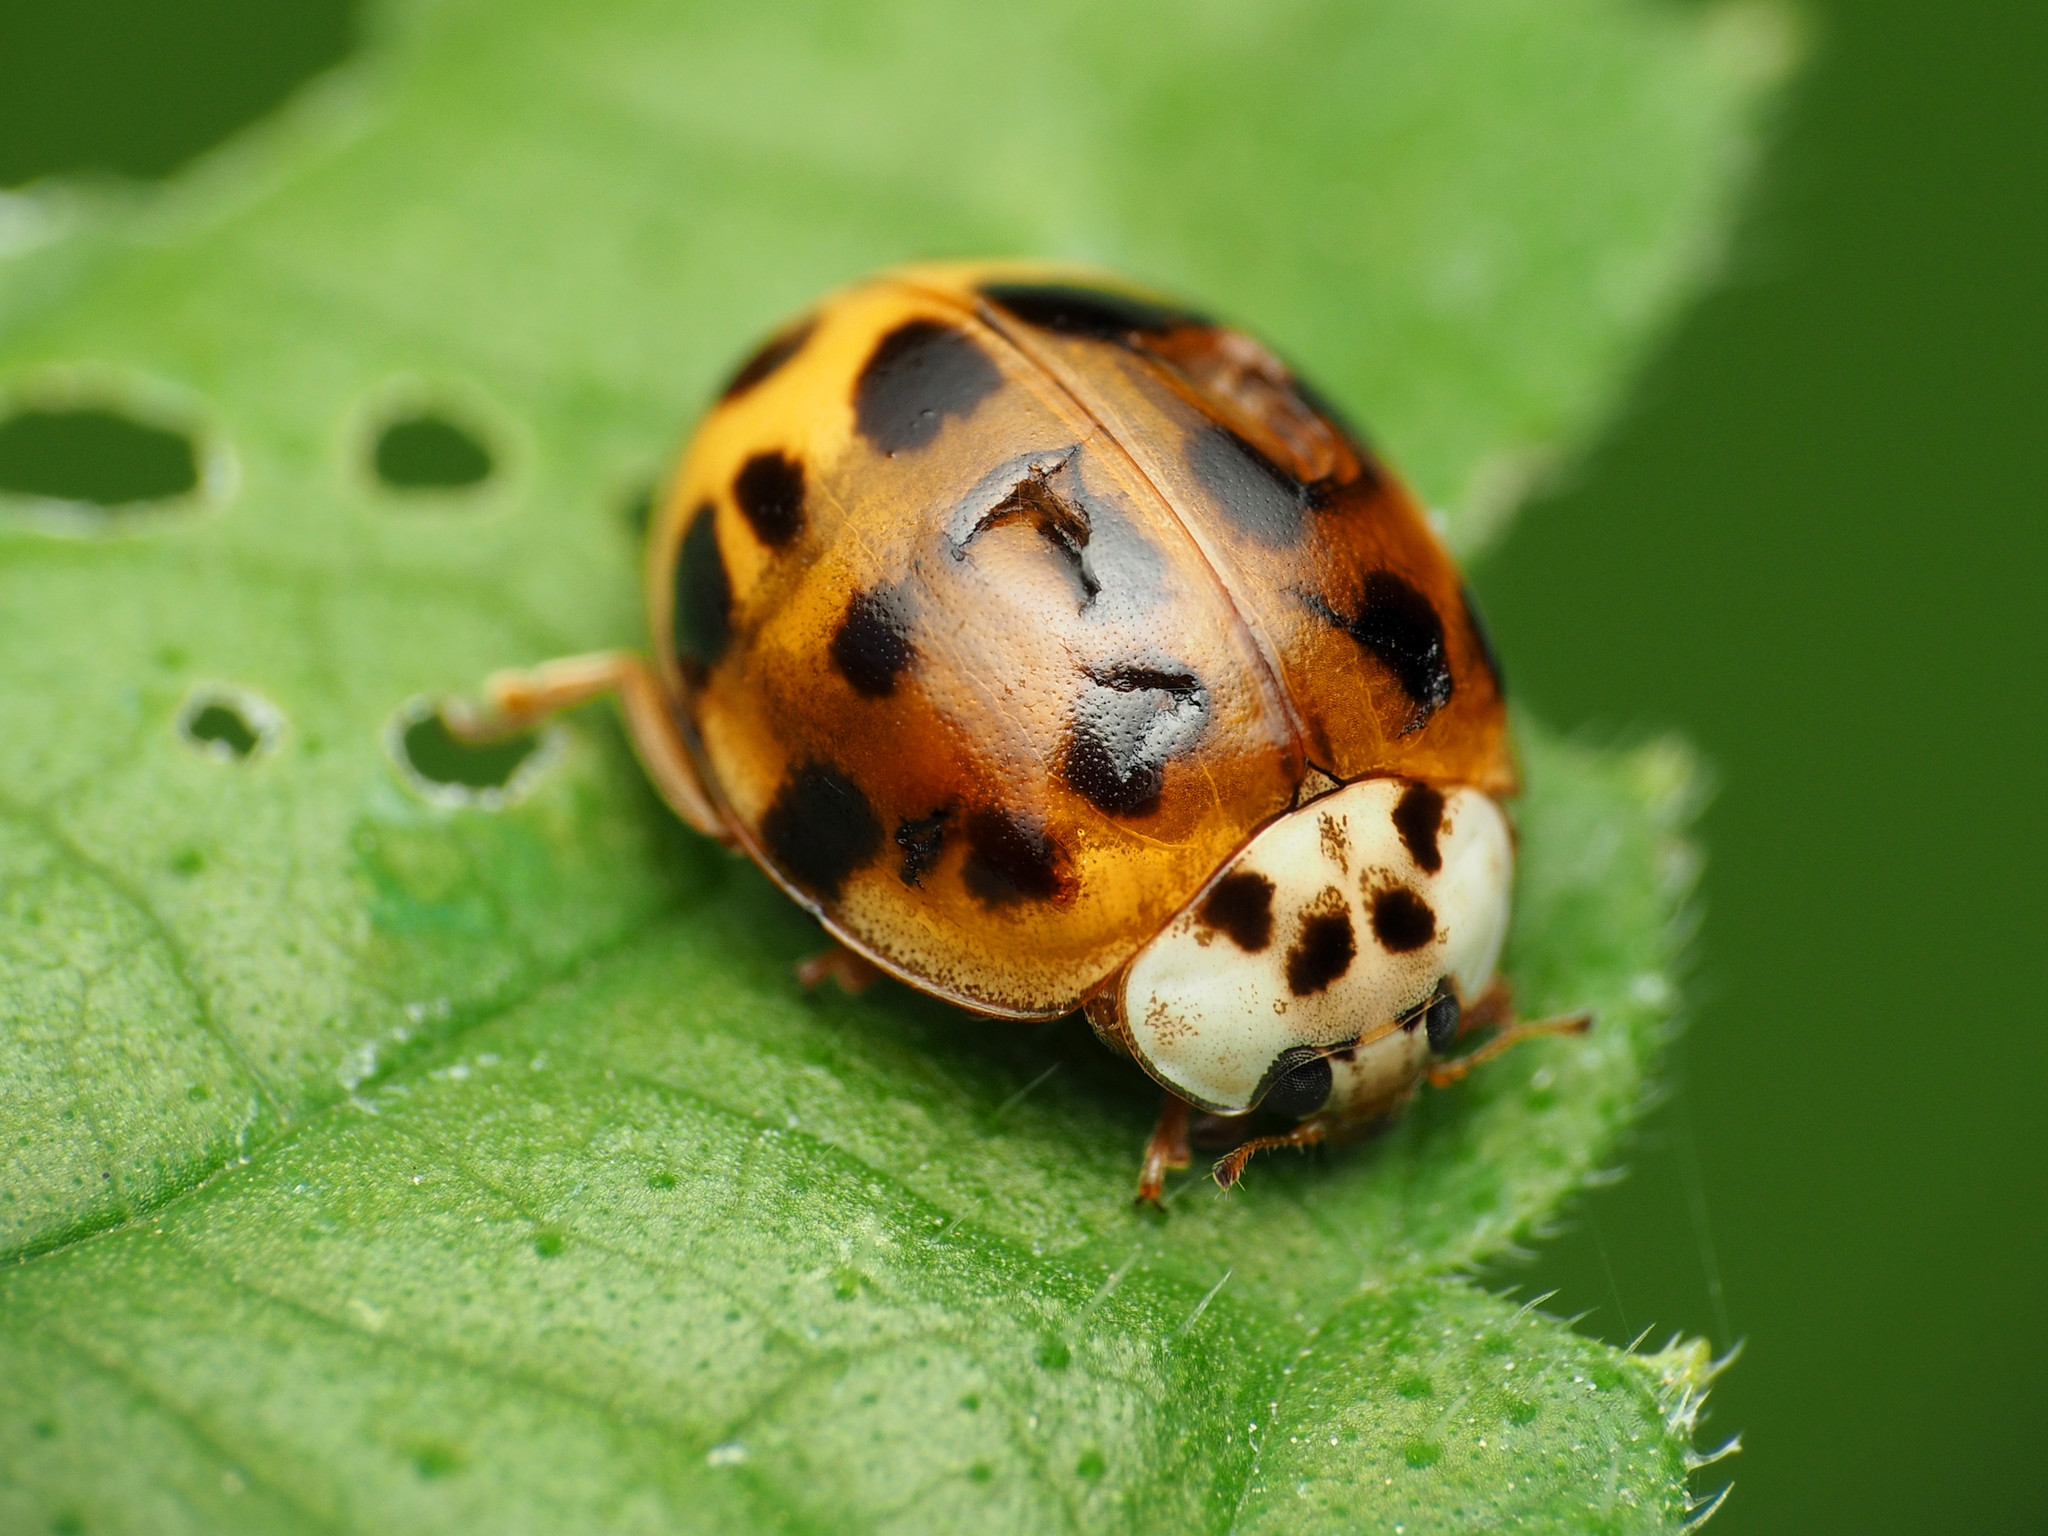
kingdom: Animalia
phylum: Arthropoda
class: Insecta
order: Coleoptera
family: Coccinellidae
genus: Harmonia
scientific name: Harmonia axyridis
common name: Harlequin ladybird
